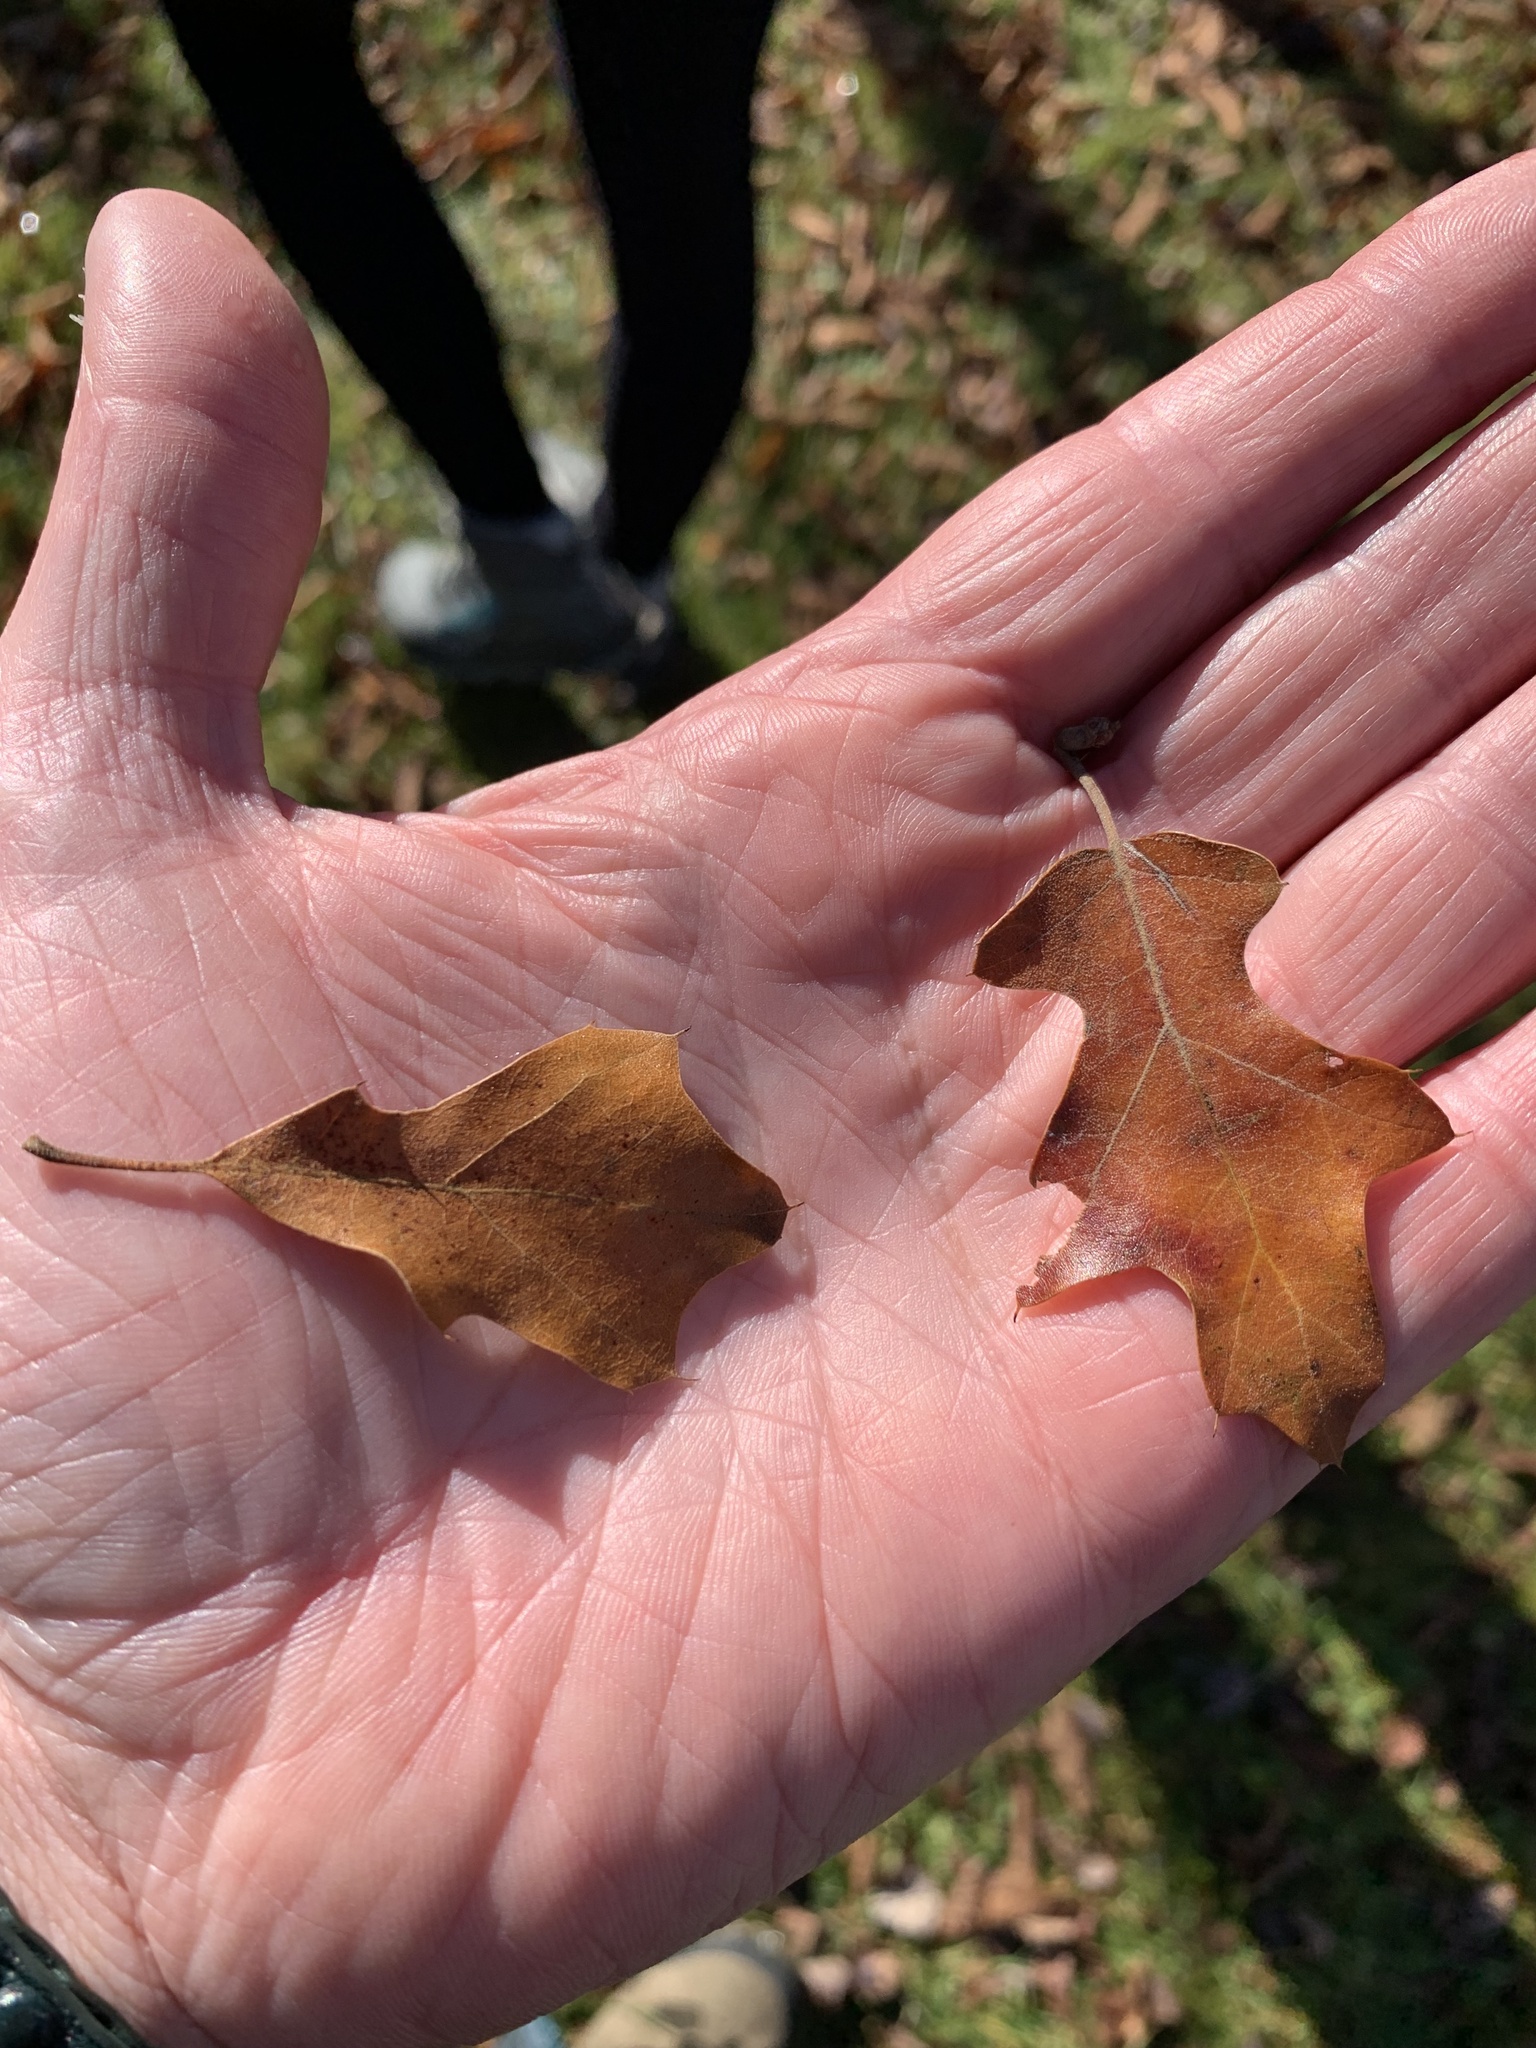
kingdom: Plantae
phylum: Tracheophyta
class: Magnoliopsida
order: Fagales
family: Fagaceae
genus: Quercus
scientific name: Quercus ilicifolia
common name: Bear oak
